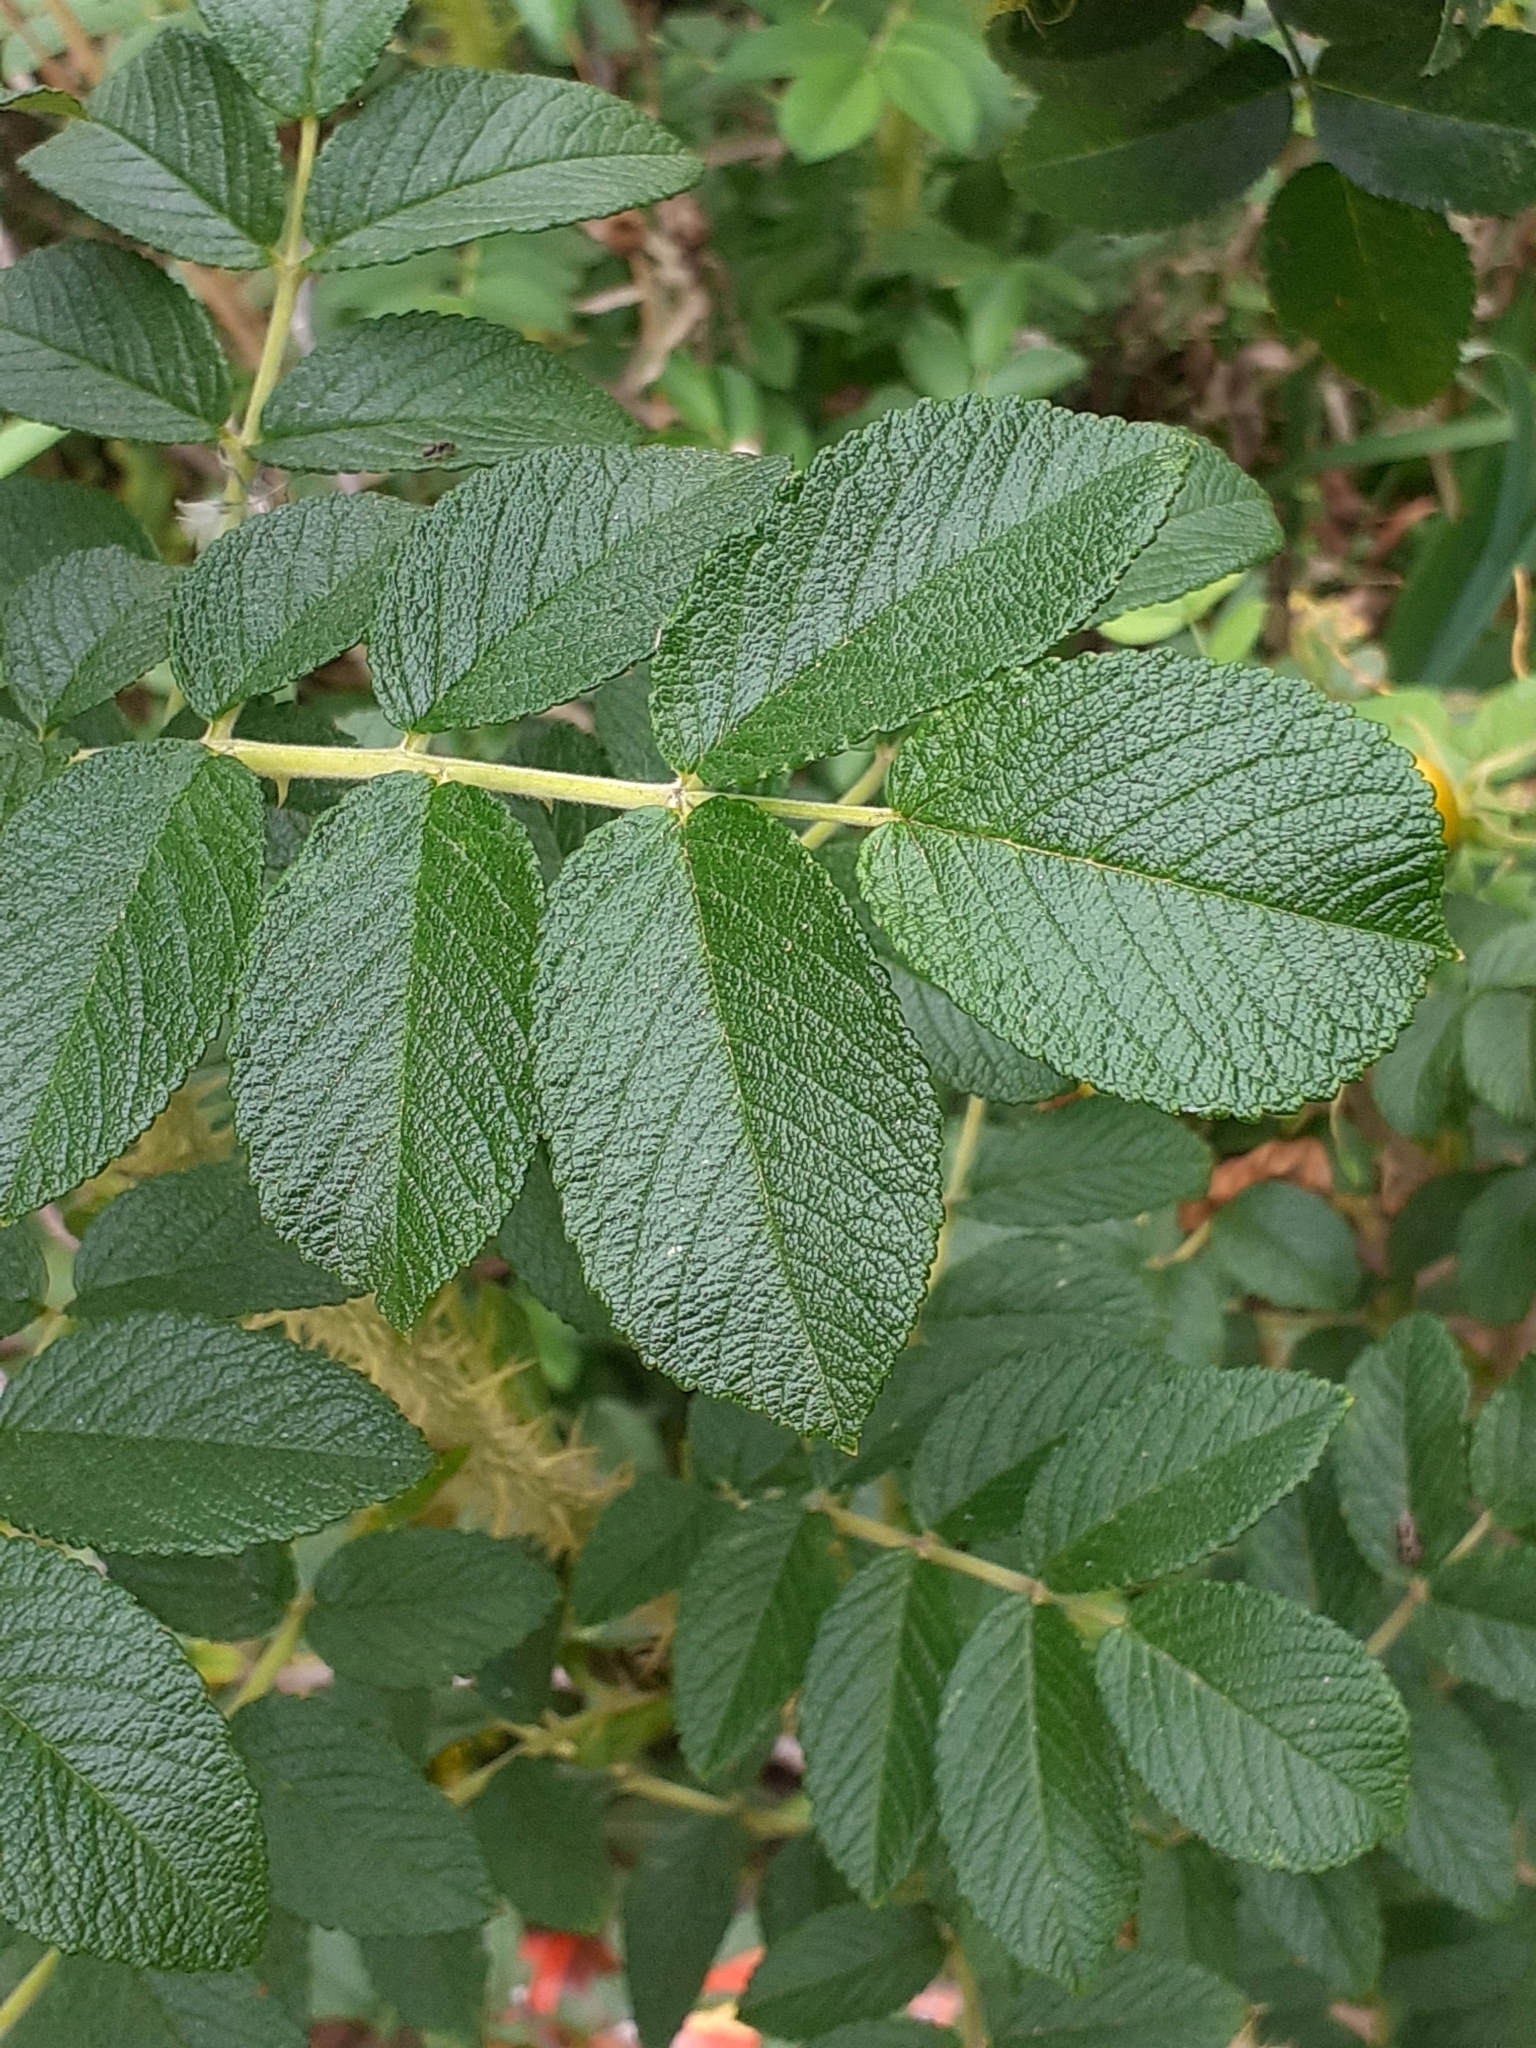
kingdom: Plantae
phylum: Tracheophyta
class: Magnoliopsida
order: Rosales
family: Rosaceae
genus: Rosa
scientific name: Rosa rugosa
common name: Japanese rose
